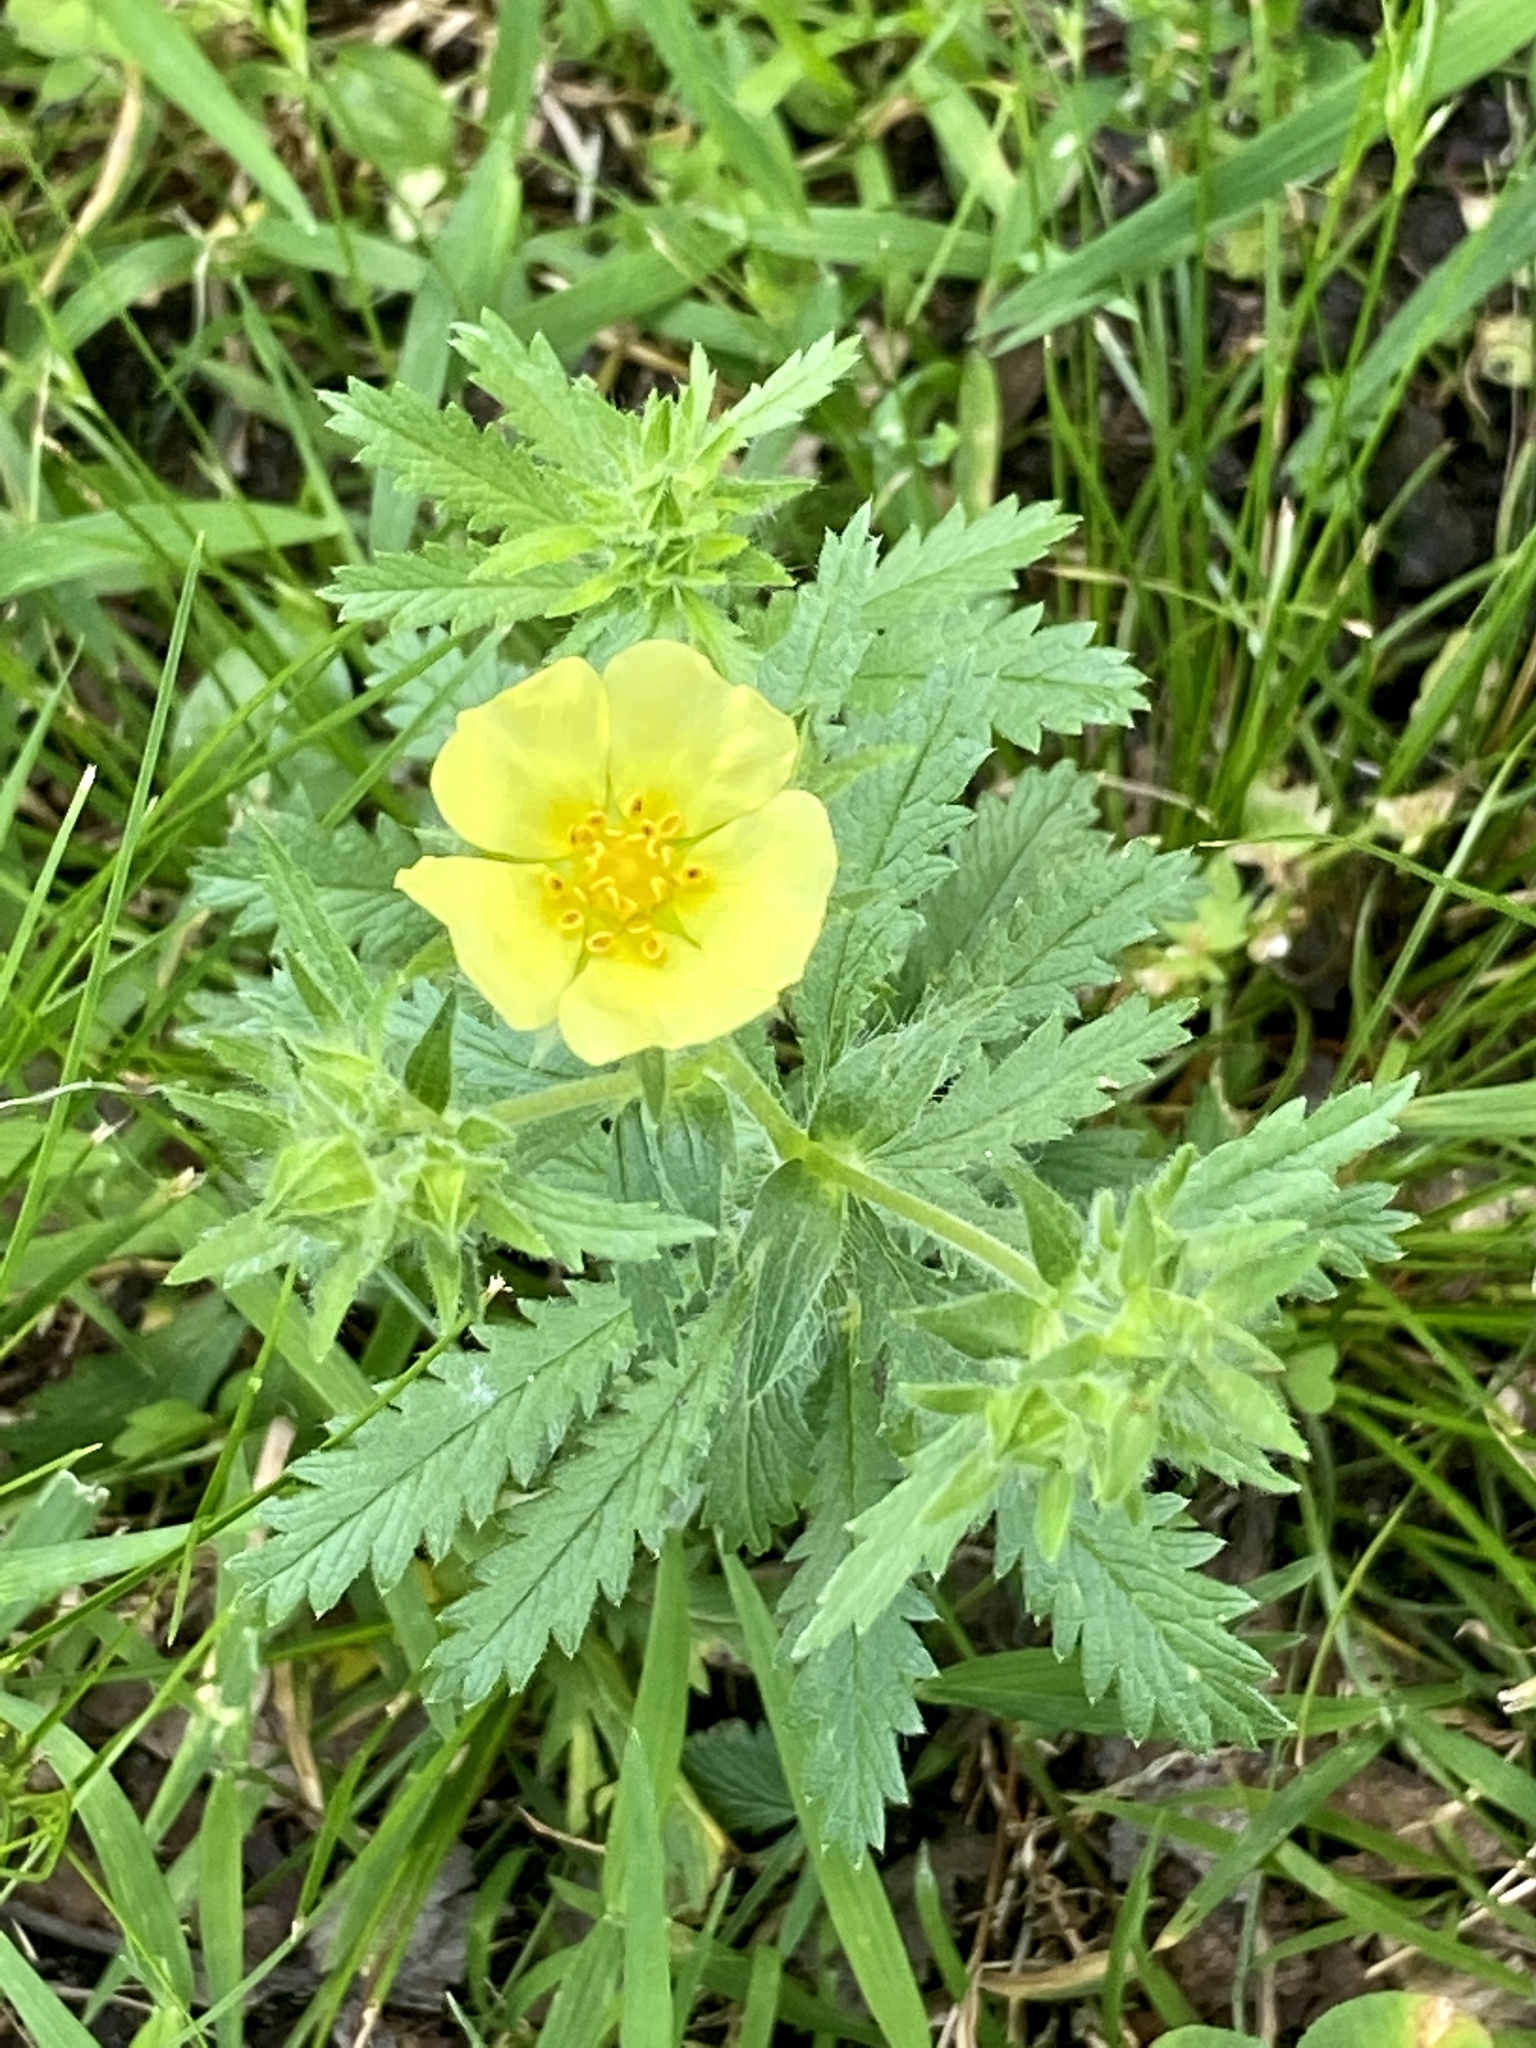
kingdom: Plantae
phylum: Tracheophyta
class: Magnoliopsida
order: Rosales
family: Rosaceae
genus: Potentilla
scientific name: Potentilla recta
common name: Sulphur cinquefoil
